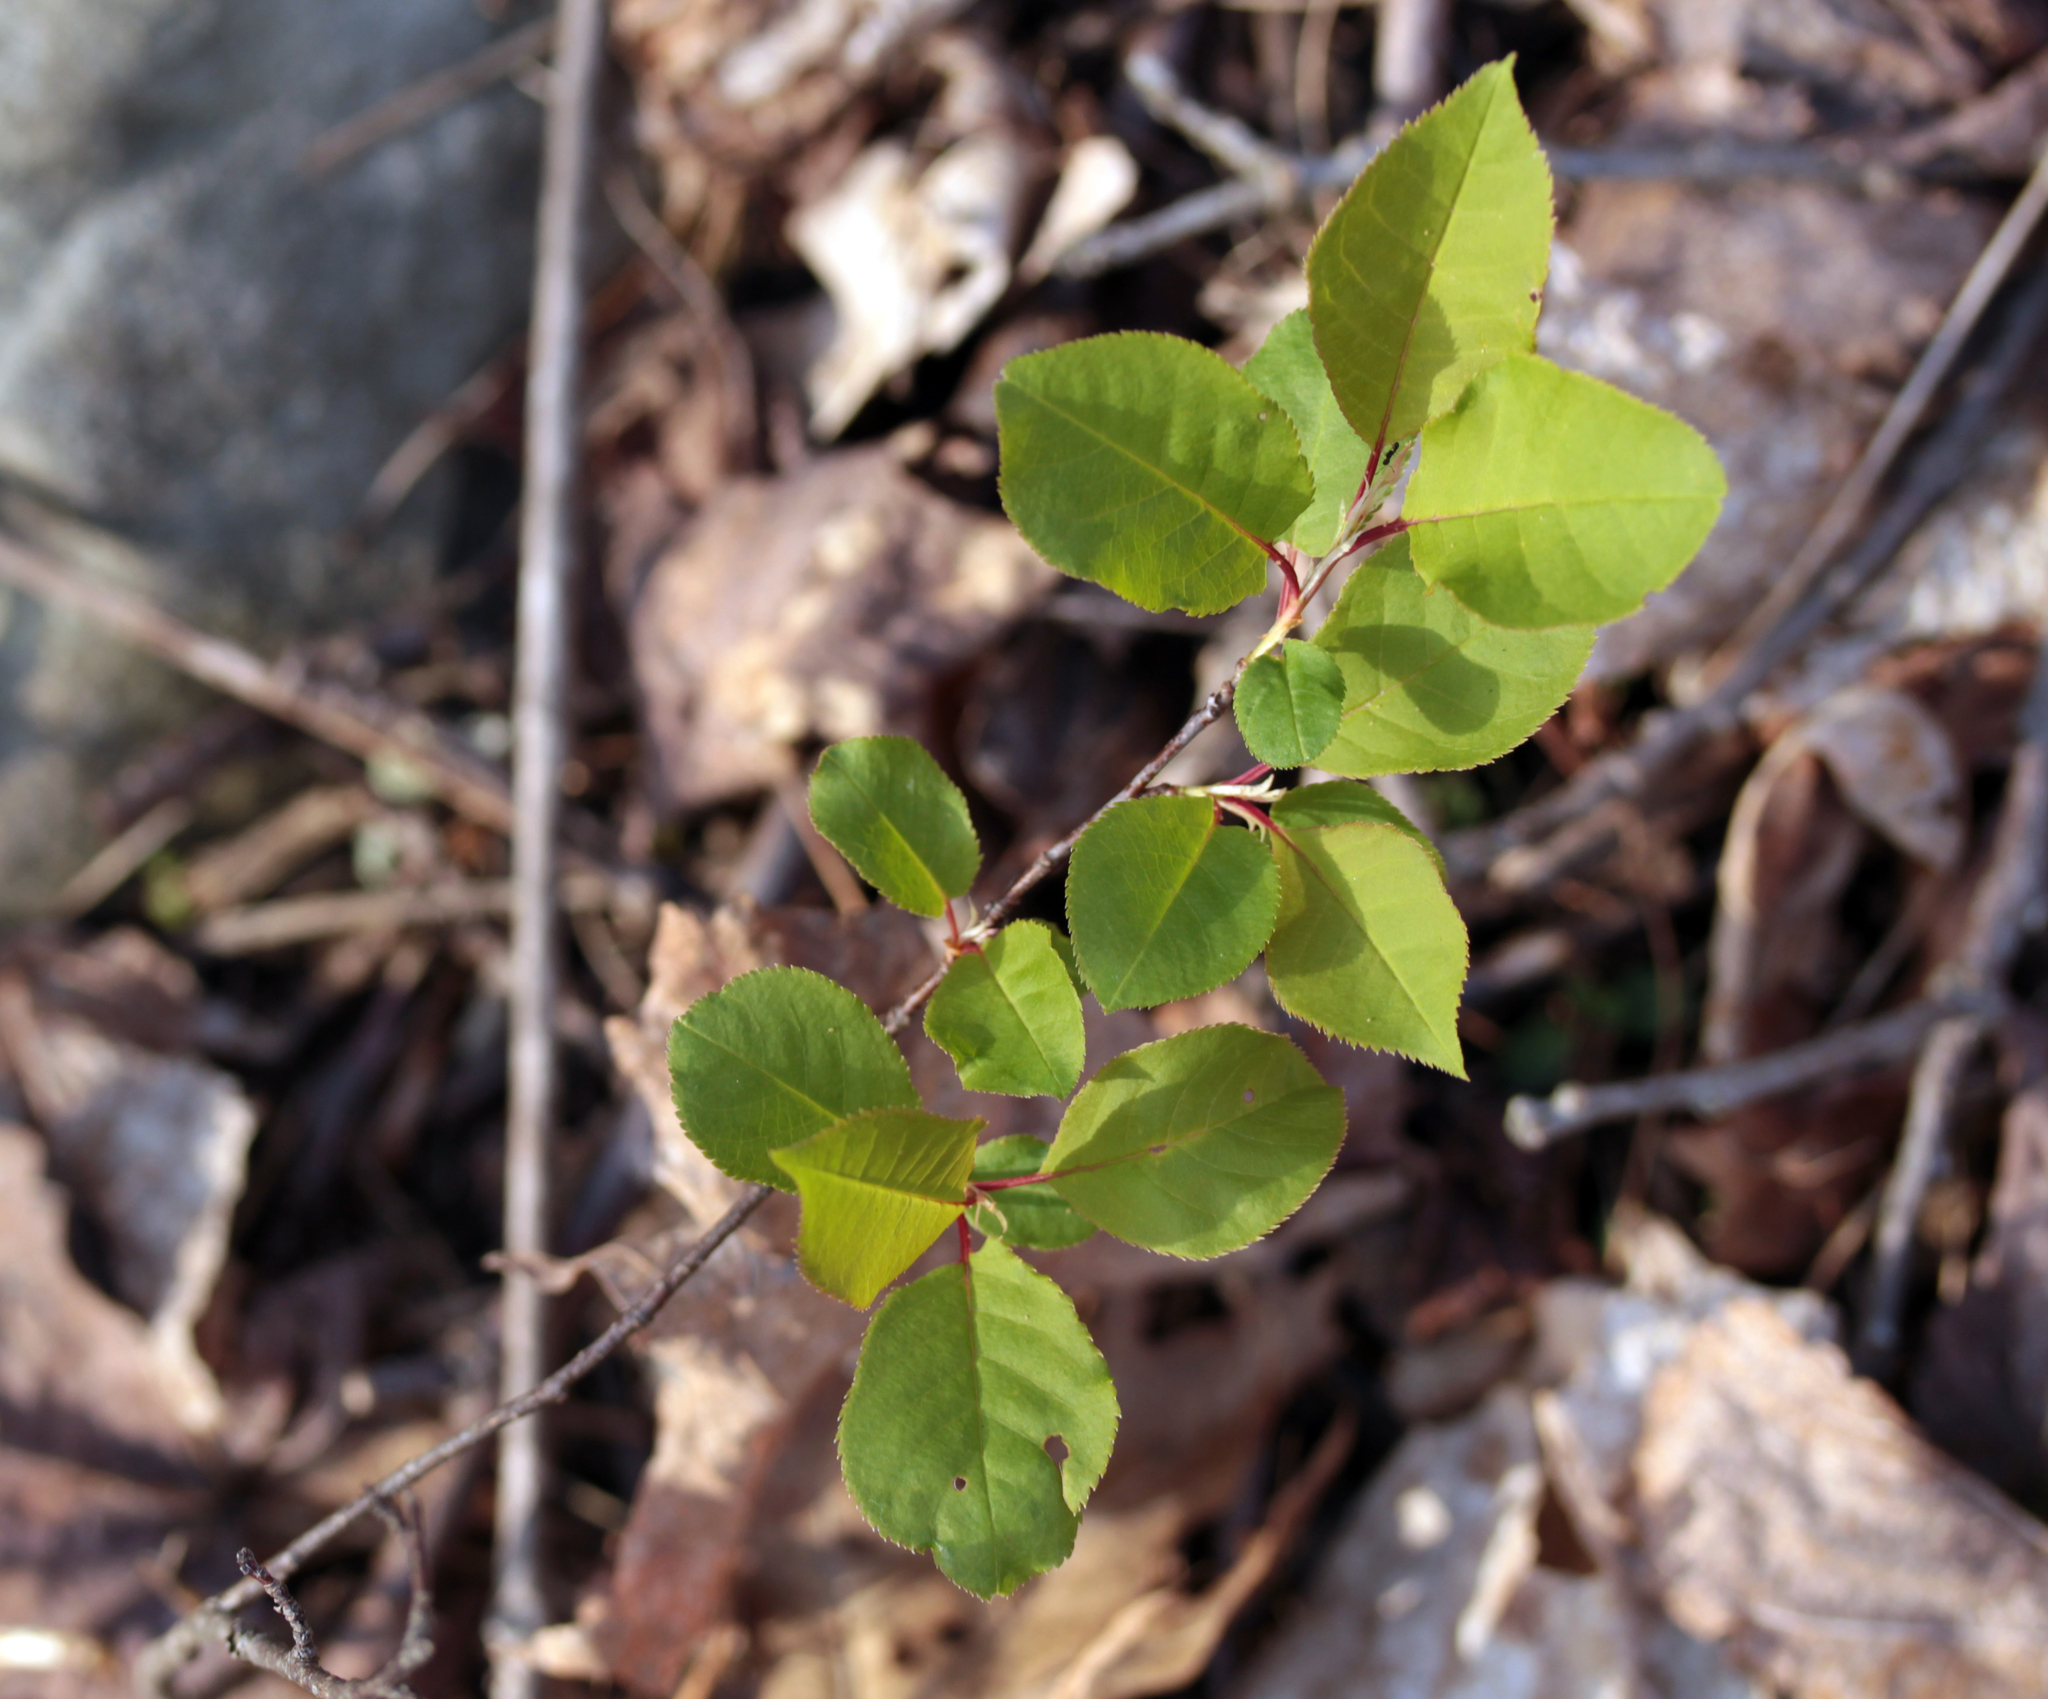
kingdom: Plantae
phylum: Tracheophyta
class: Magnoliopsida
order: Rosales
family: Rosaceae
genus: Prunus
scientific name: Prunus virginiana
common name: Chokecherry
